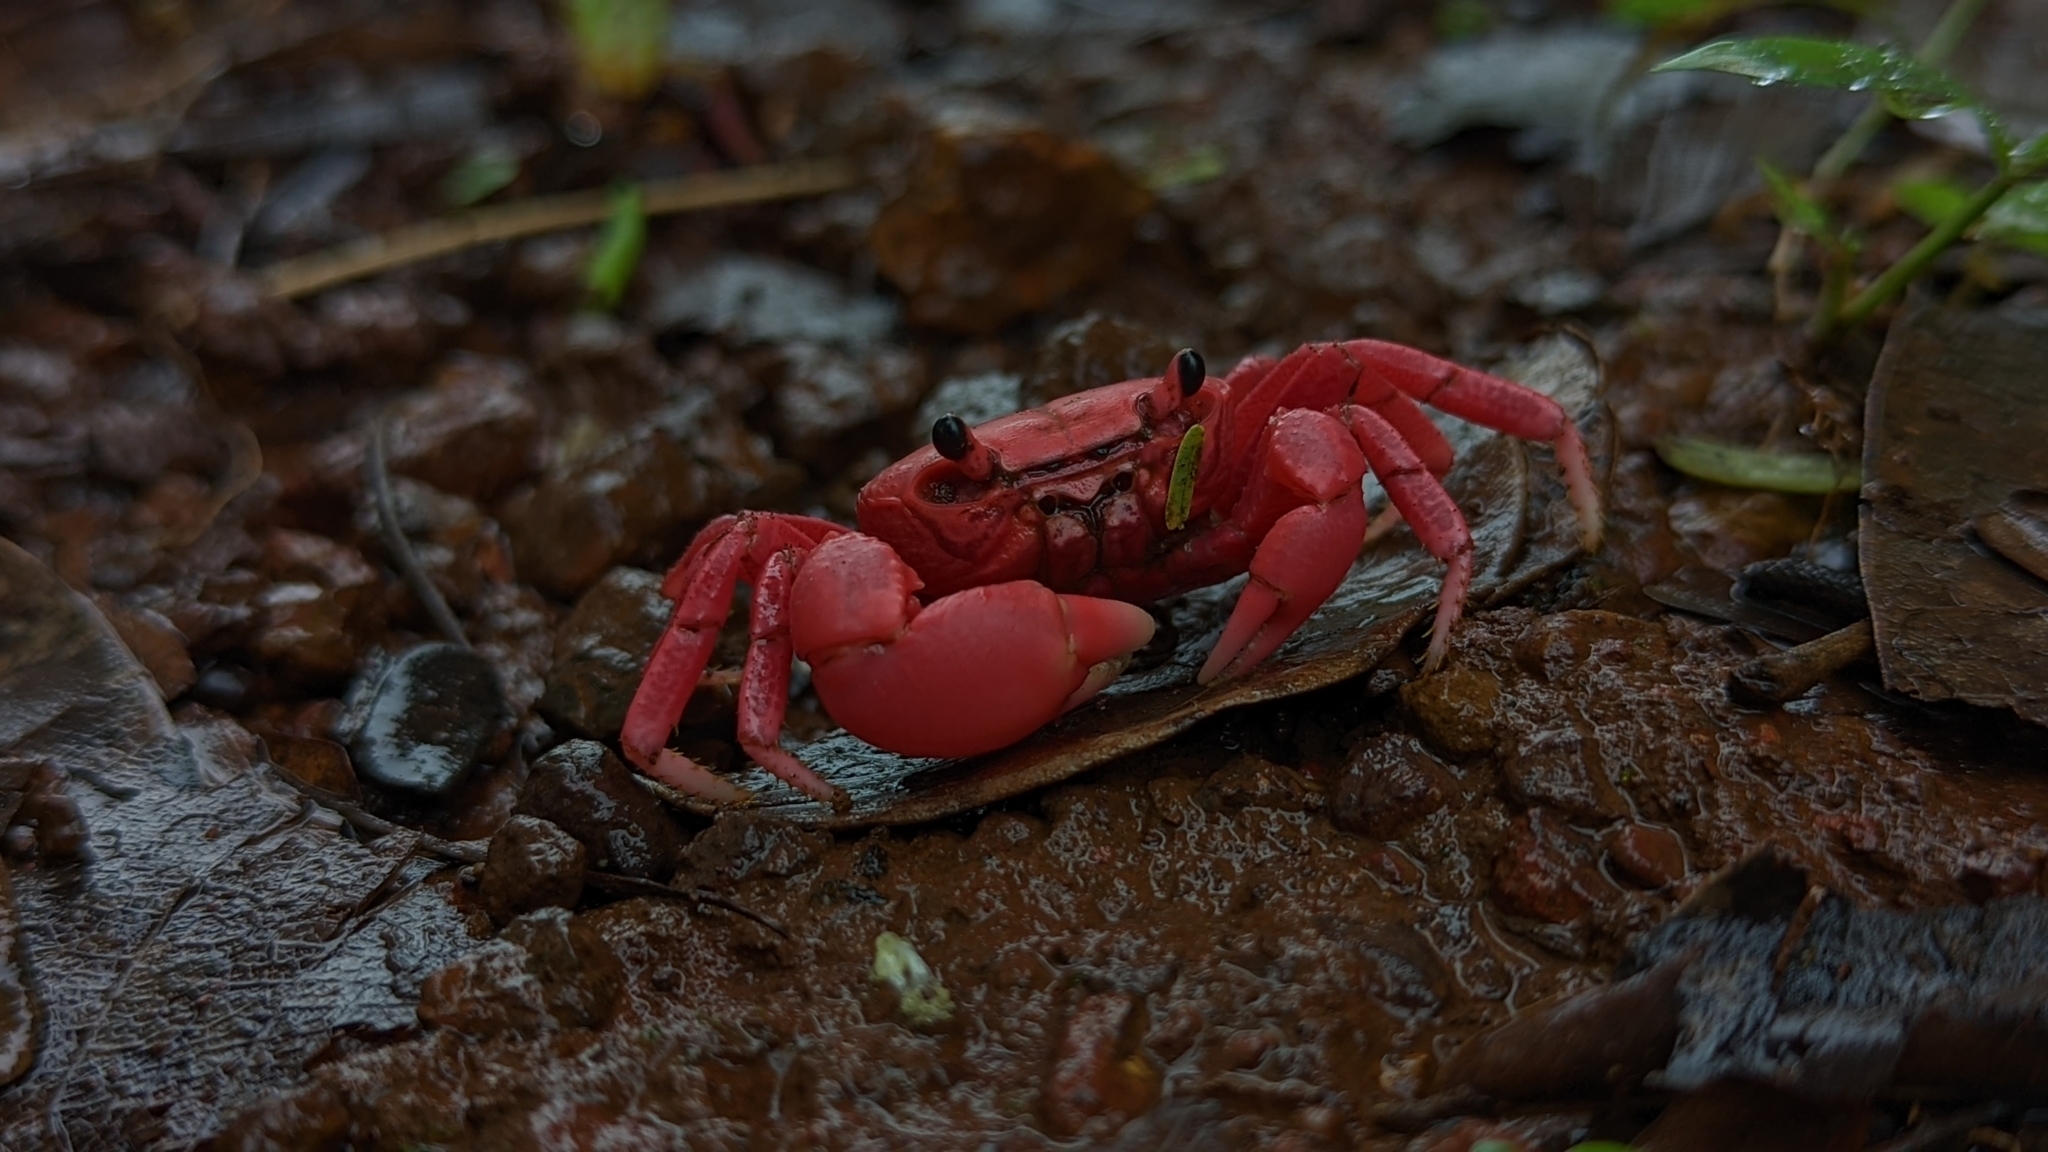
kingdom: Animalia
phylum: Arthropoda
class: Malacostraca
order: Decapoda
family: Gecarcinucidae
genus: Ghatiana
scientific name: Ghatiana botti
